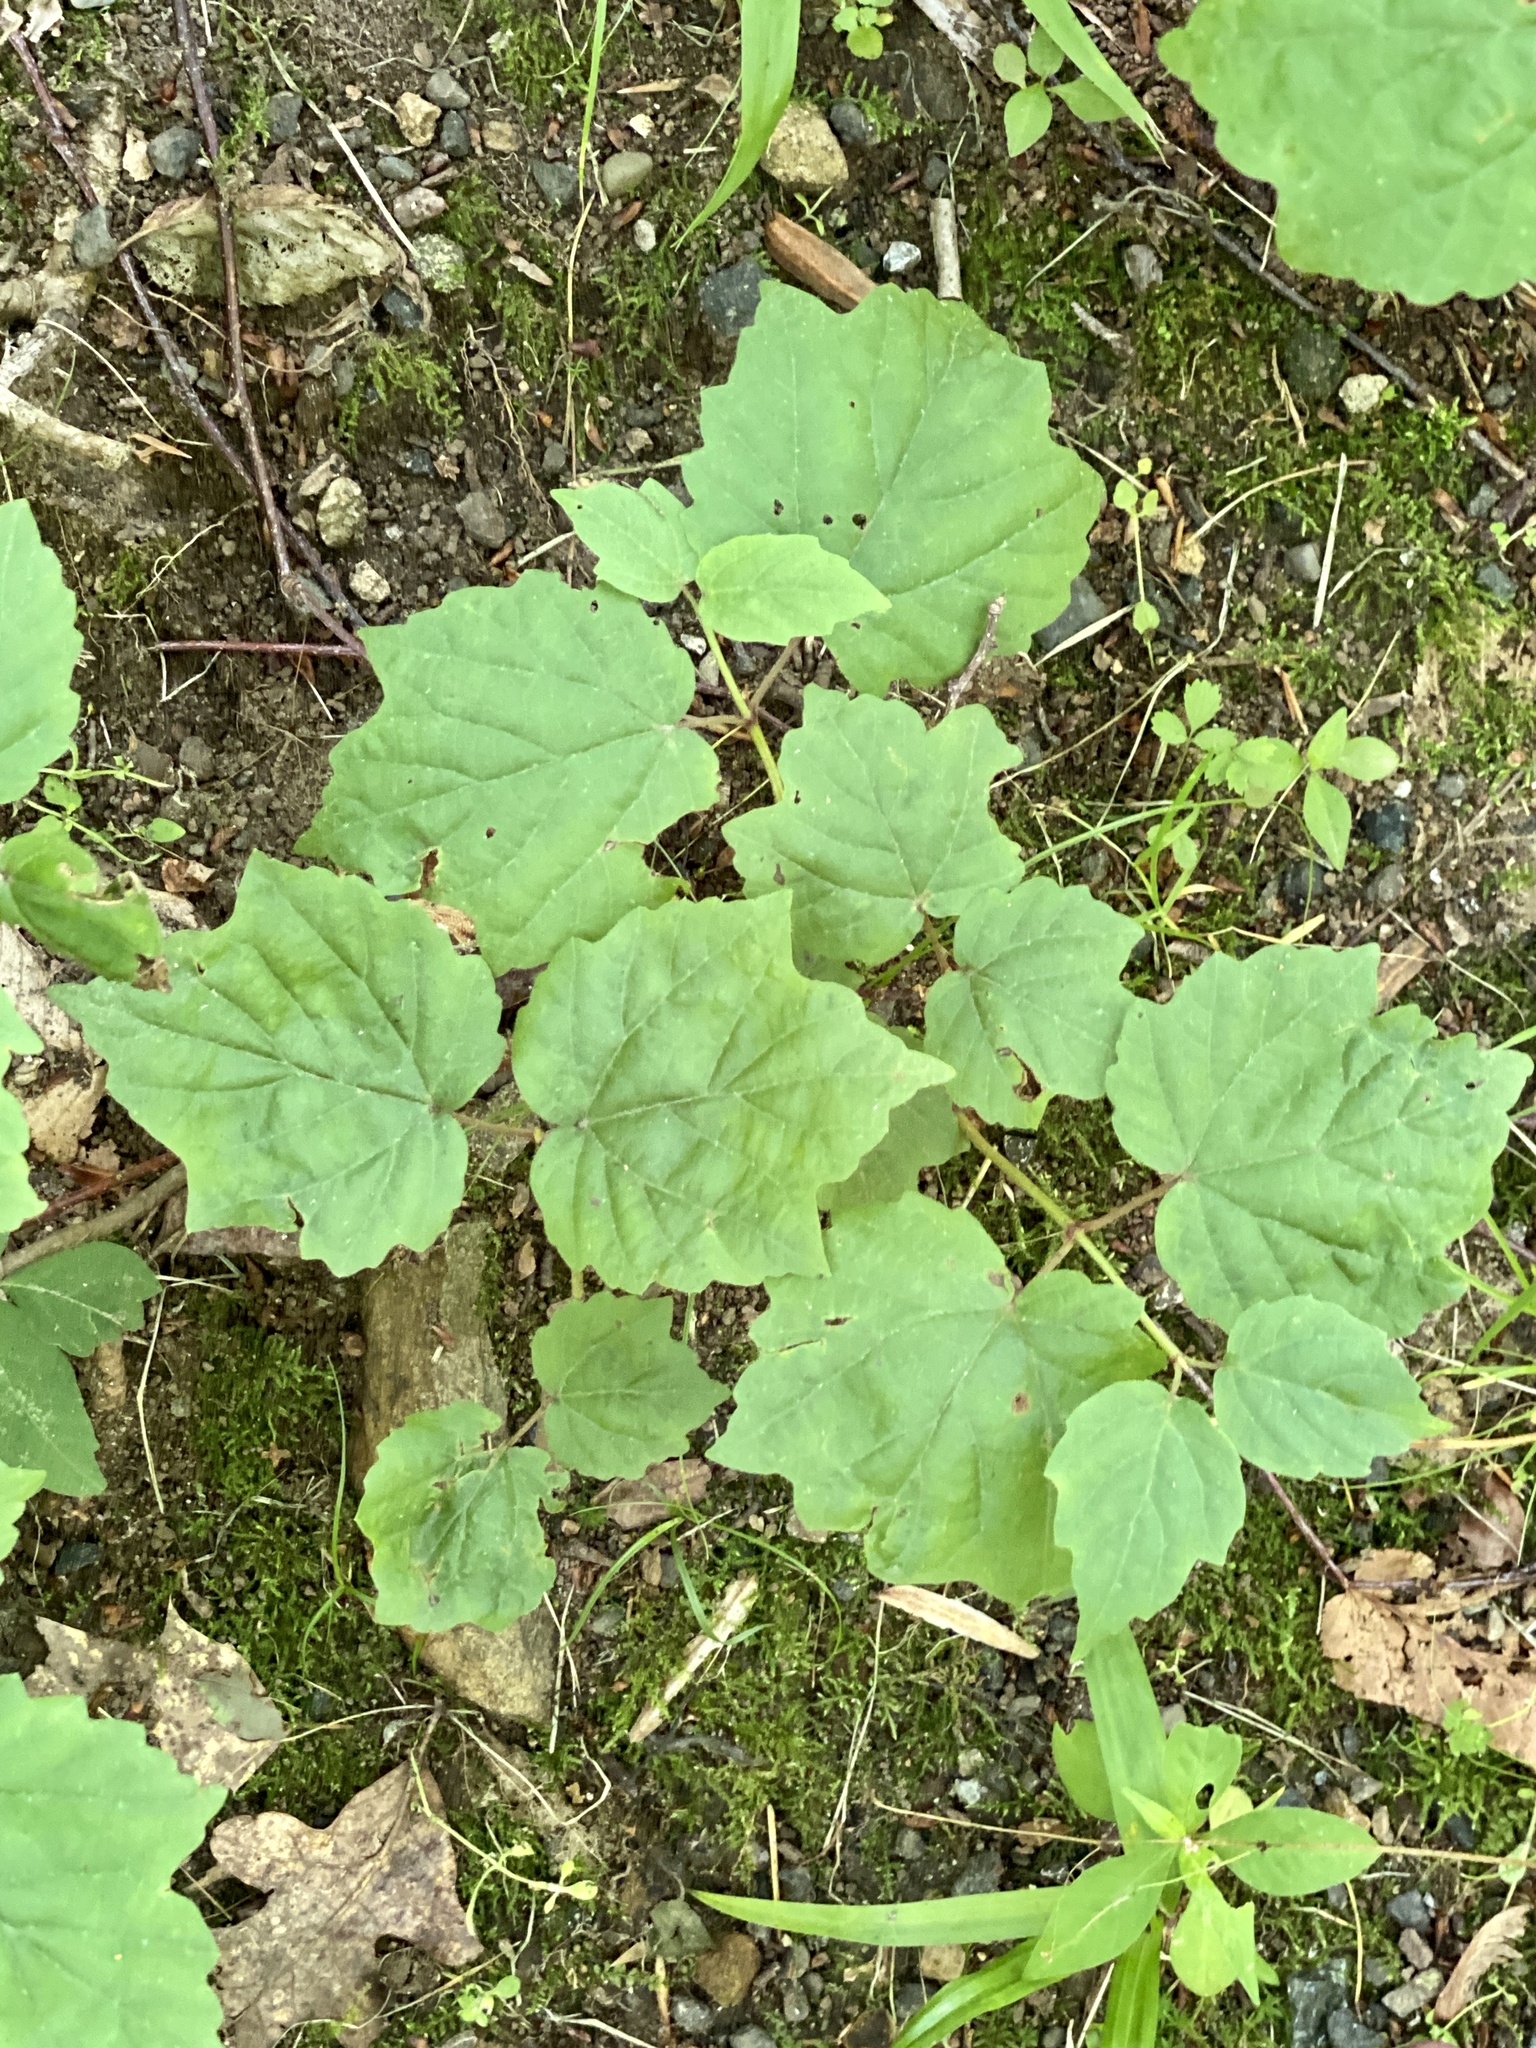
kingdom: Plantae
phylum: Tracheophyta
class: Magnoliopsida
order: Dipsacales
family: Viburnaceae
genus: Viburnum
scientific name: Viburnum acerifolium
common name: Dockmackie
